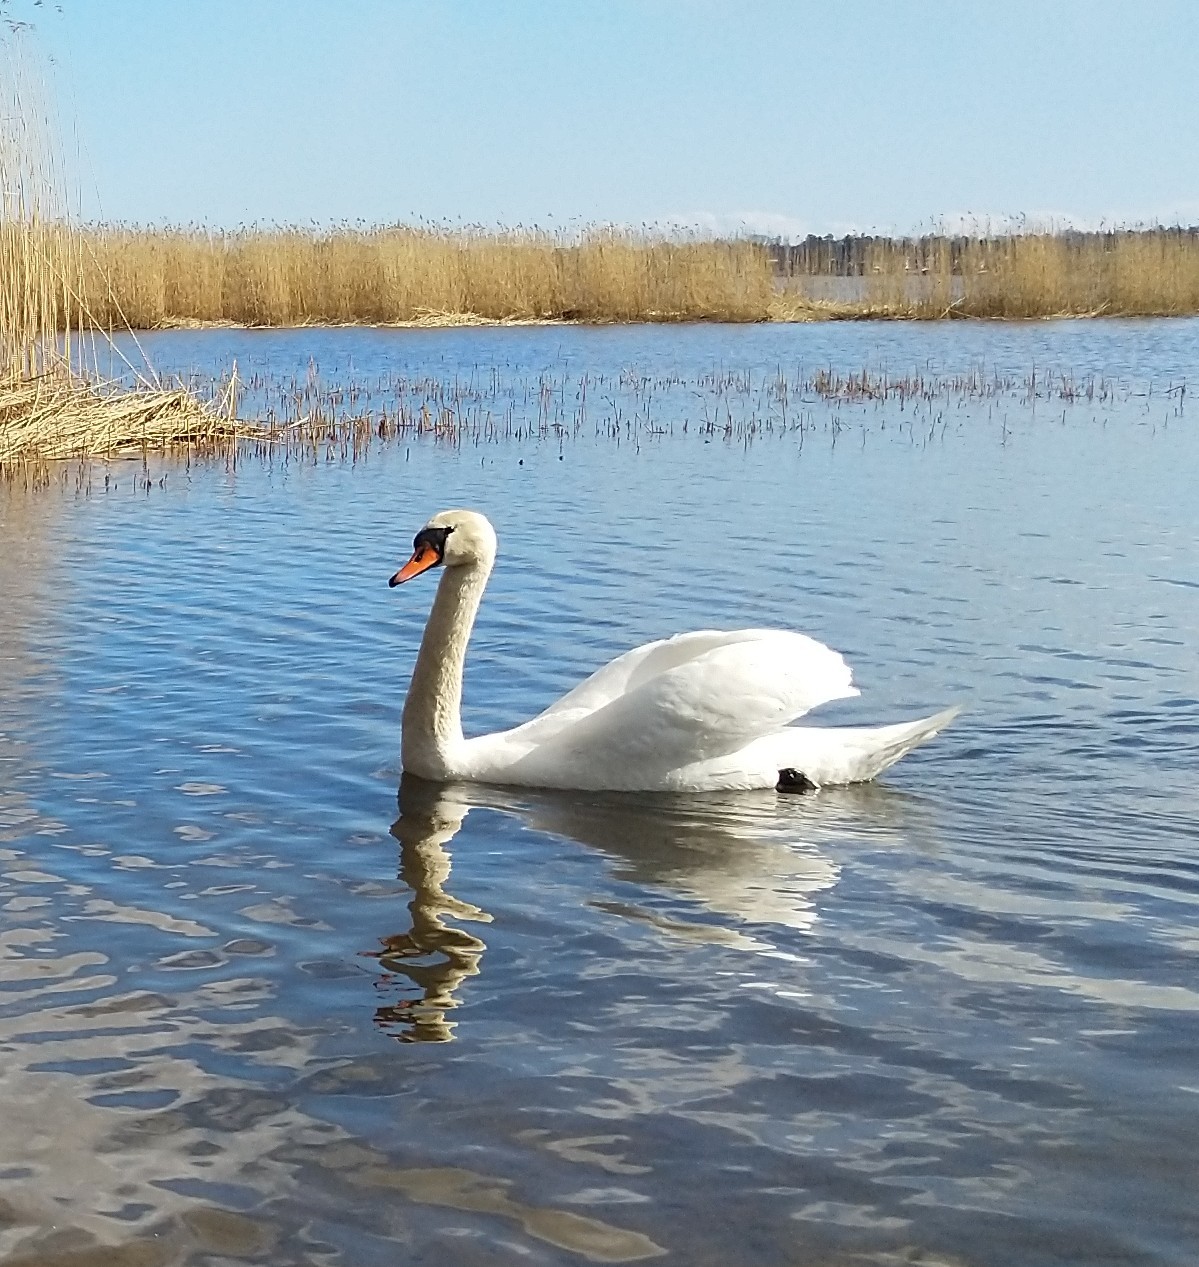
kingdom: Animalia
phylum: Chordata
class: Aves
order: Anseriformes
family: Anatidae
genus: Cygnus
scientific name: Cygnus olor
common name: Mute swan
